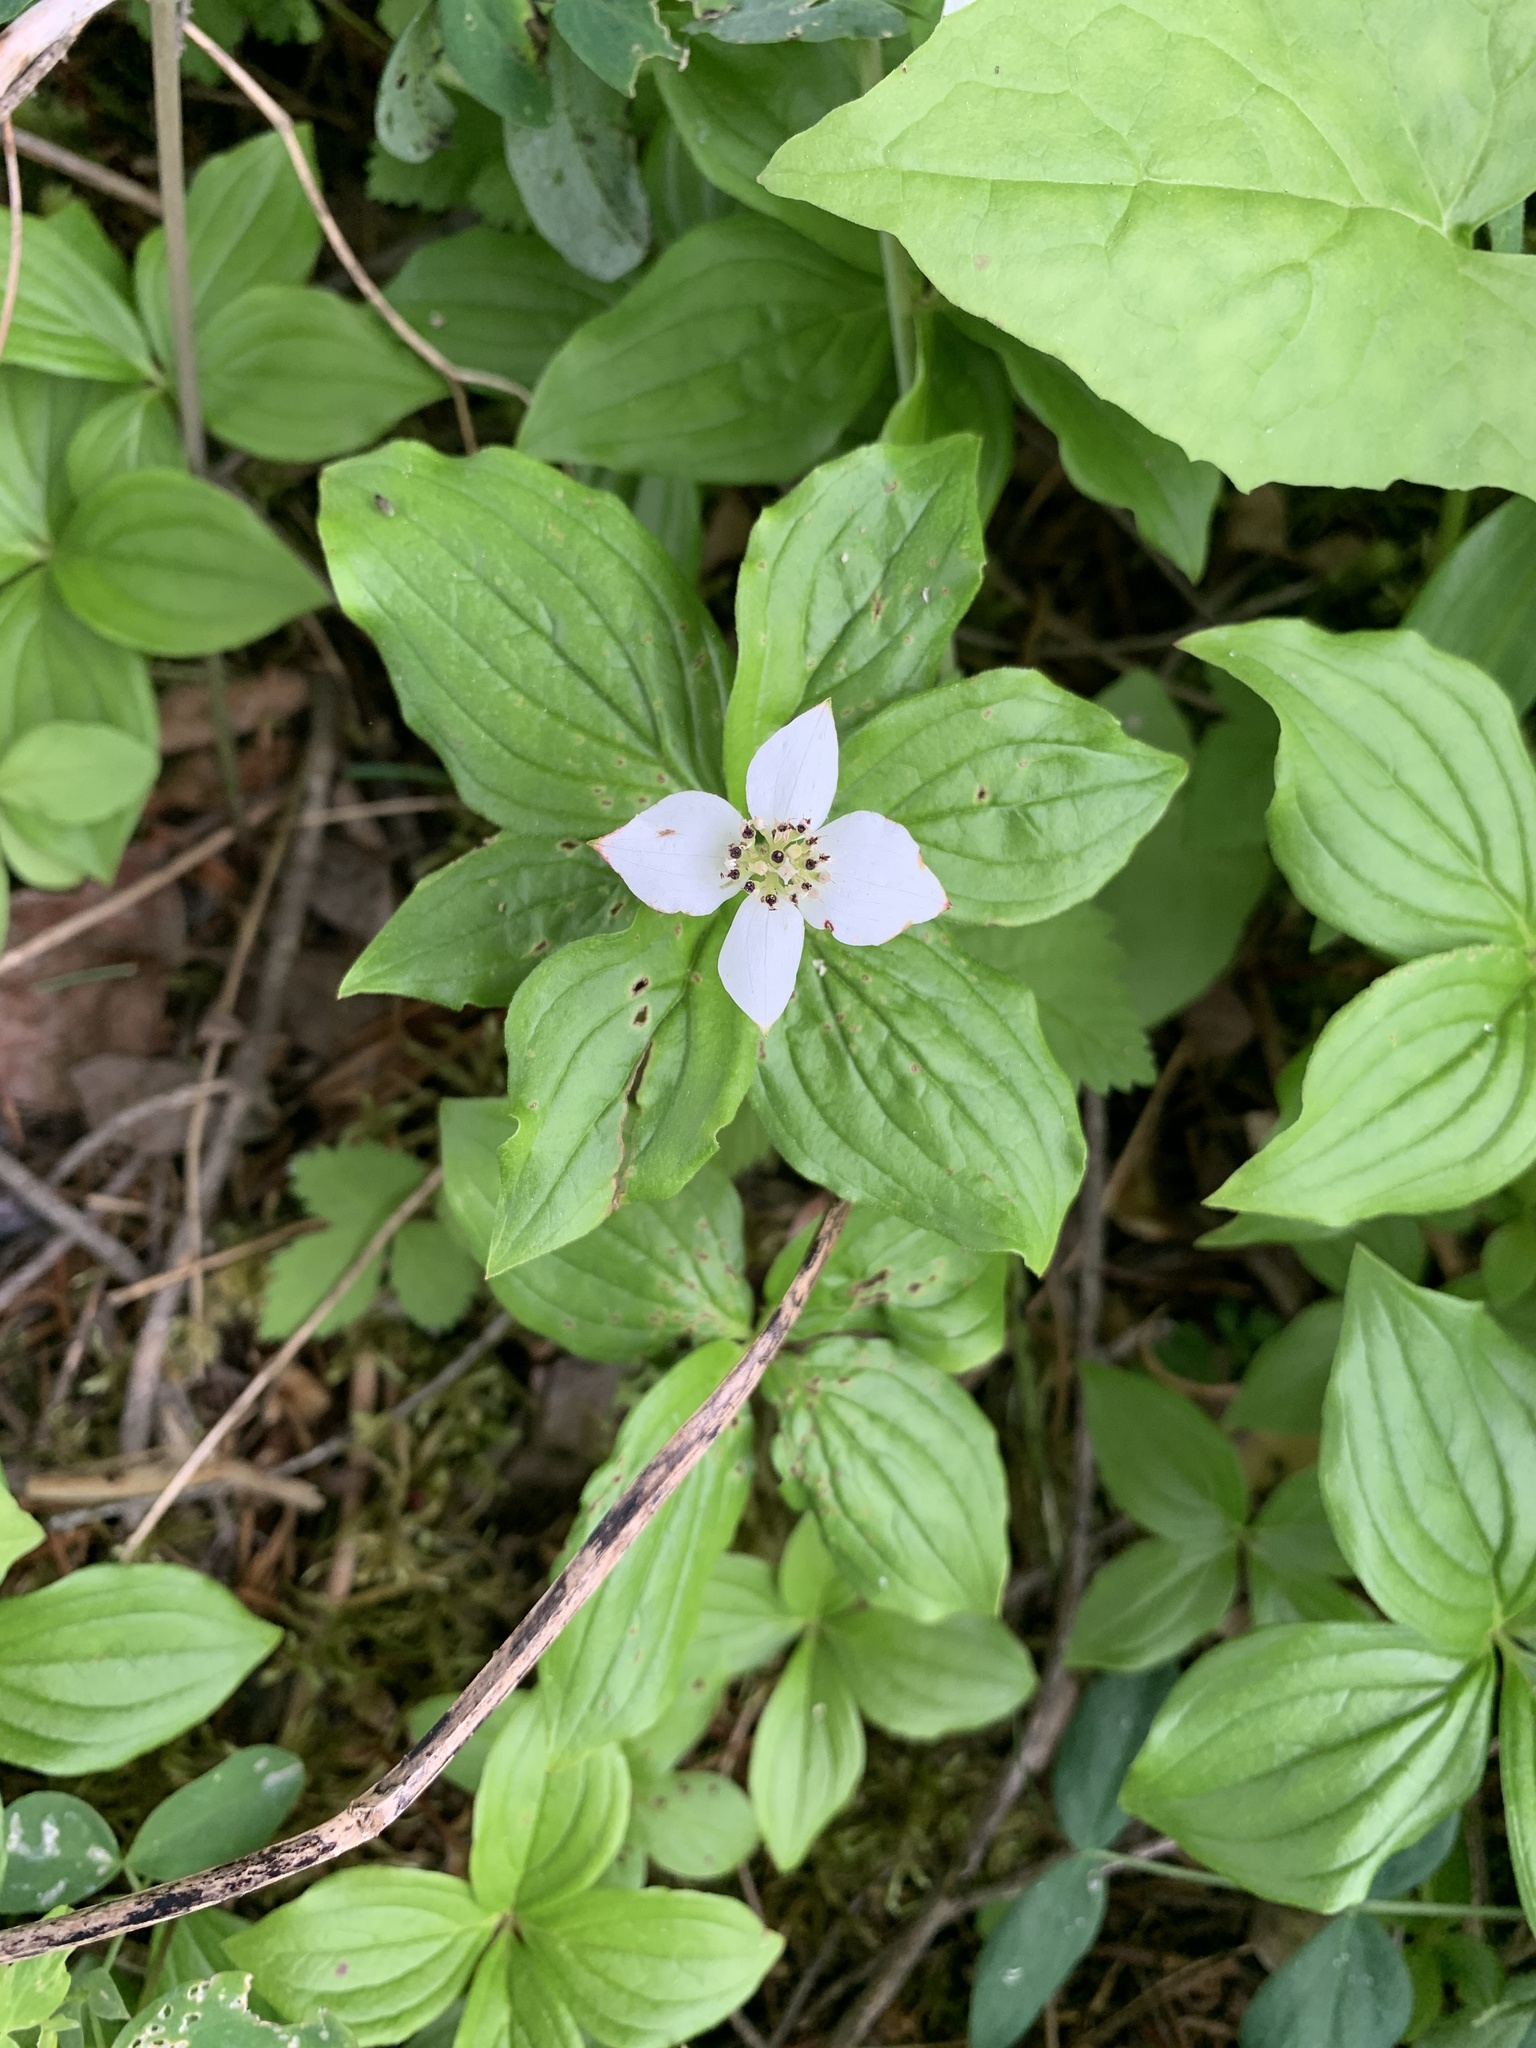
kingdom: Plantae
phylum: Tracheophyta
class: Magnoliopsida
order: Cornales
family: Cornaceae
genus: Cornus
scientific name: Cornus canadensis
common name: Creeping dogwood
